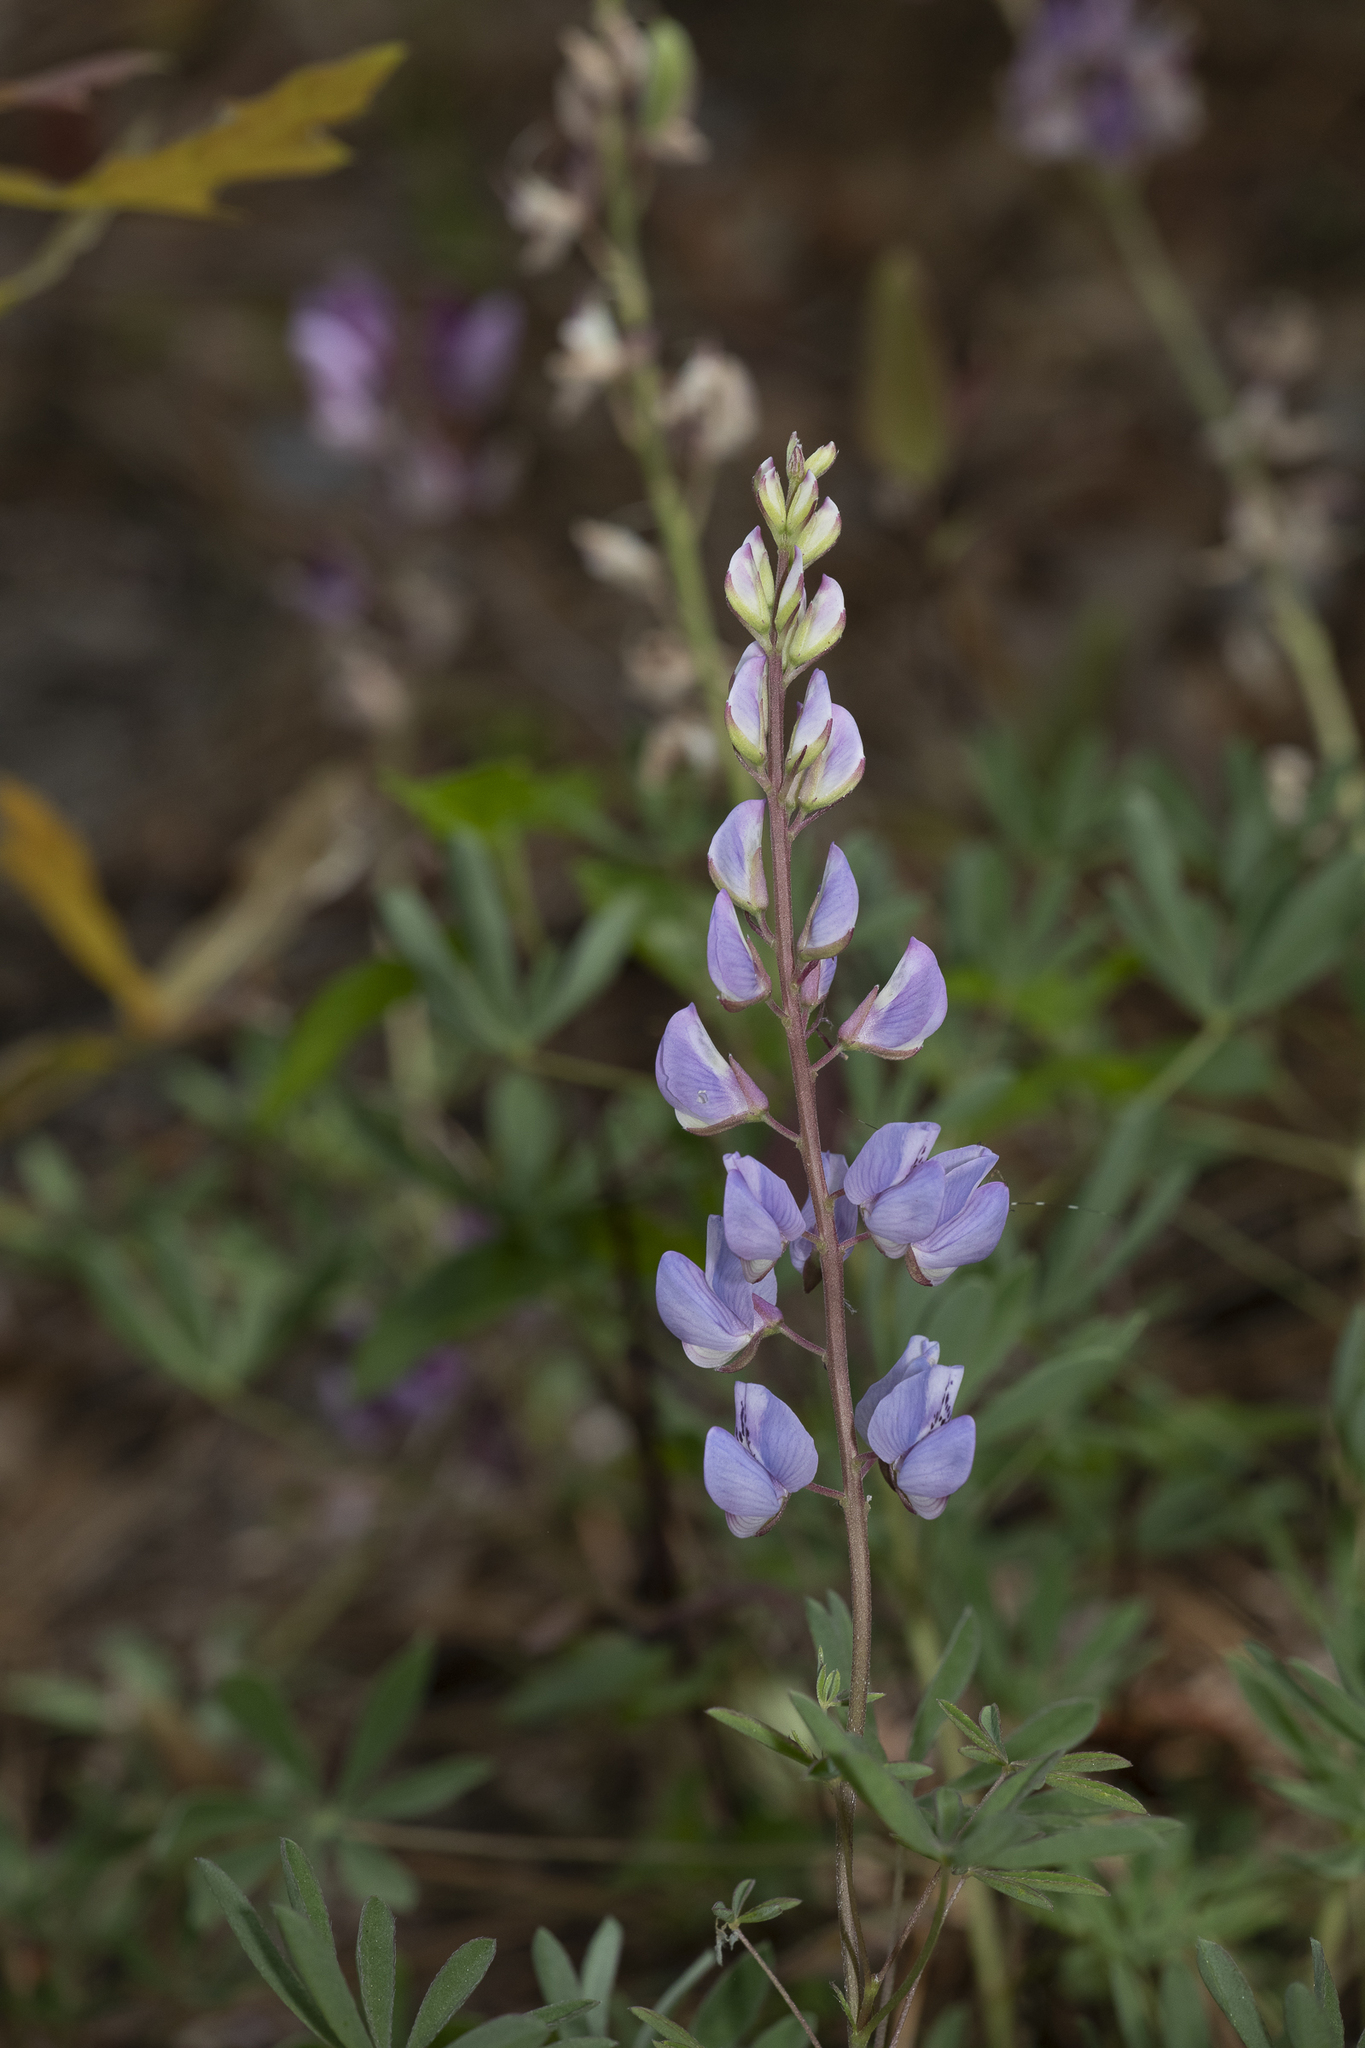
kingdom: Plantae
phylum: Tracheophyta
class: Magnoliopsida
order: Fabales
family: Fabaceae
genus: Lupinus
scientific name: Lupinus perennis
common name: Sundial lupine
